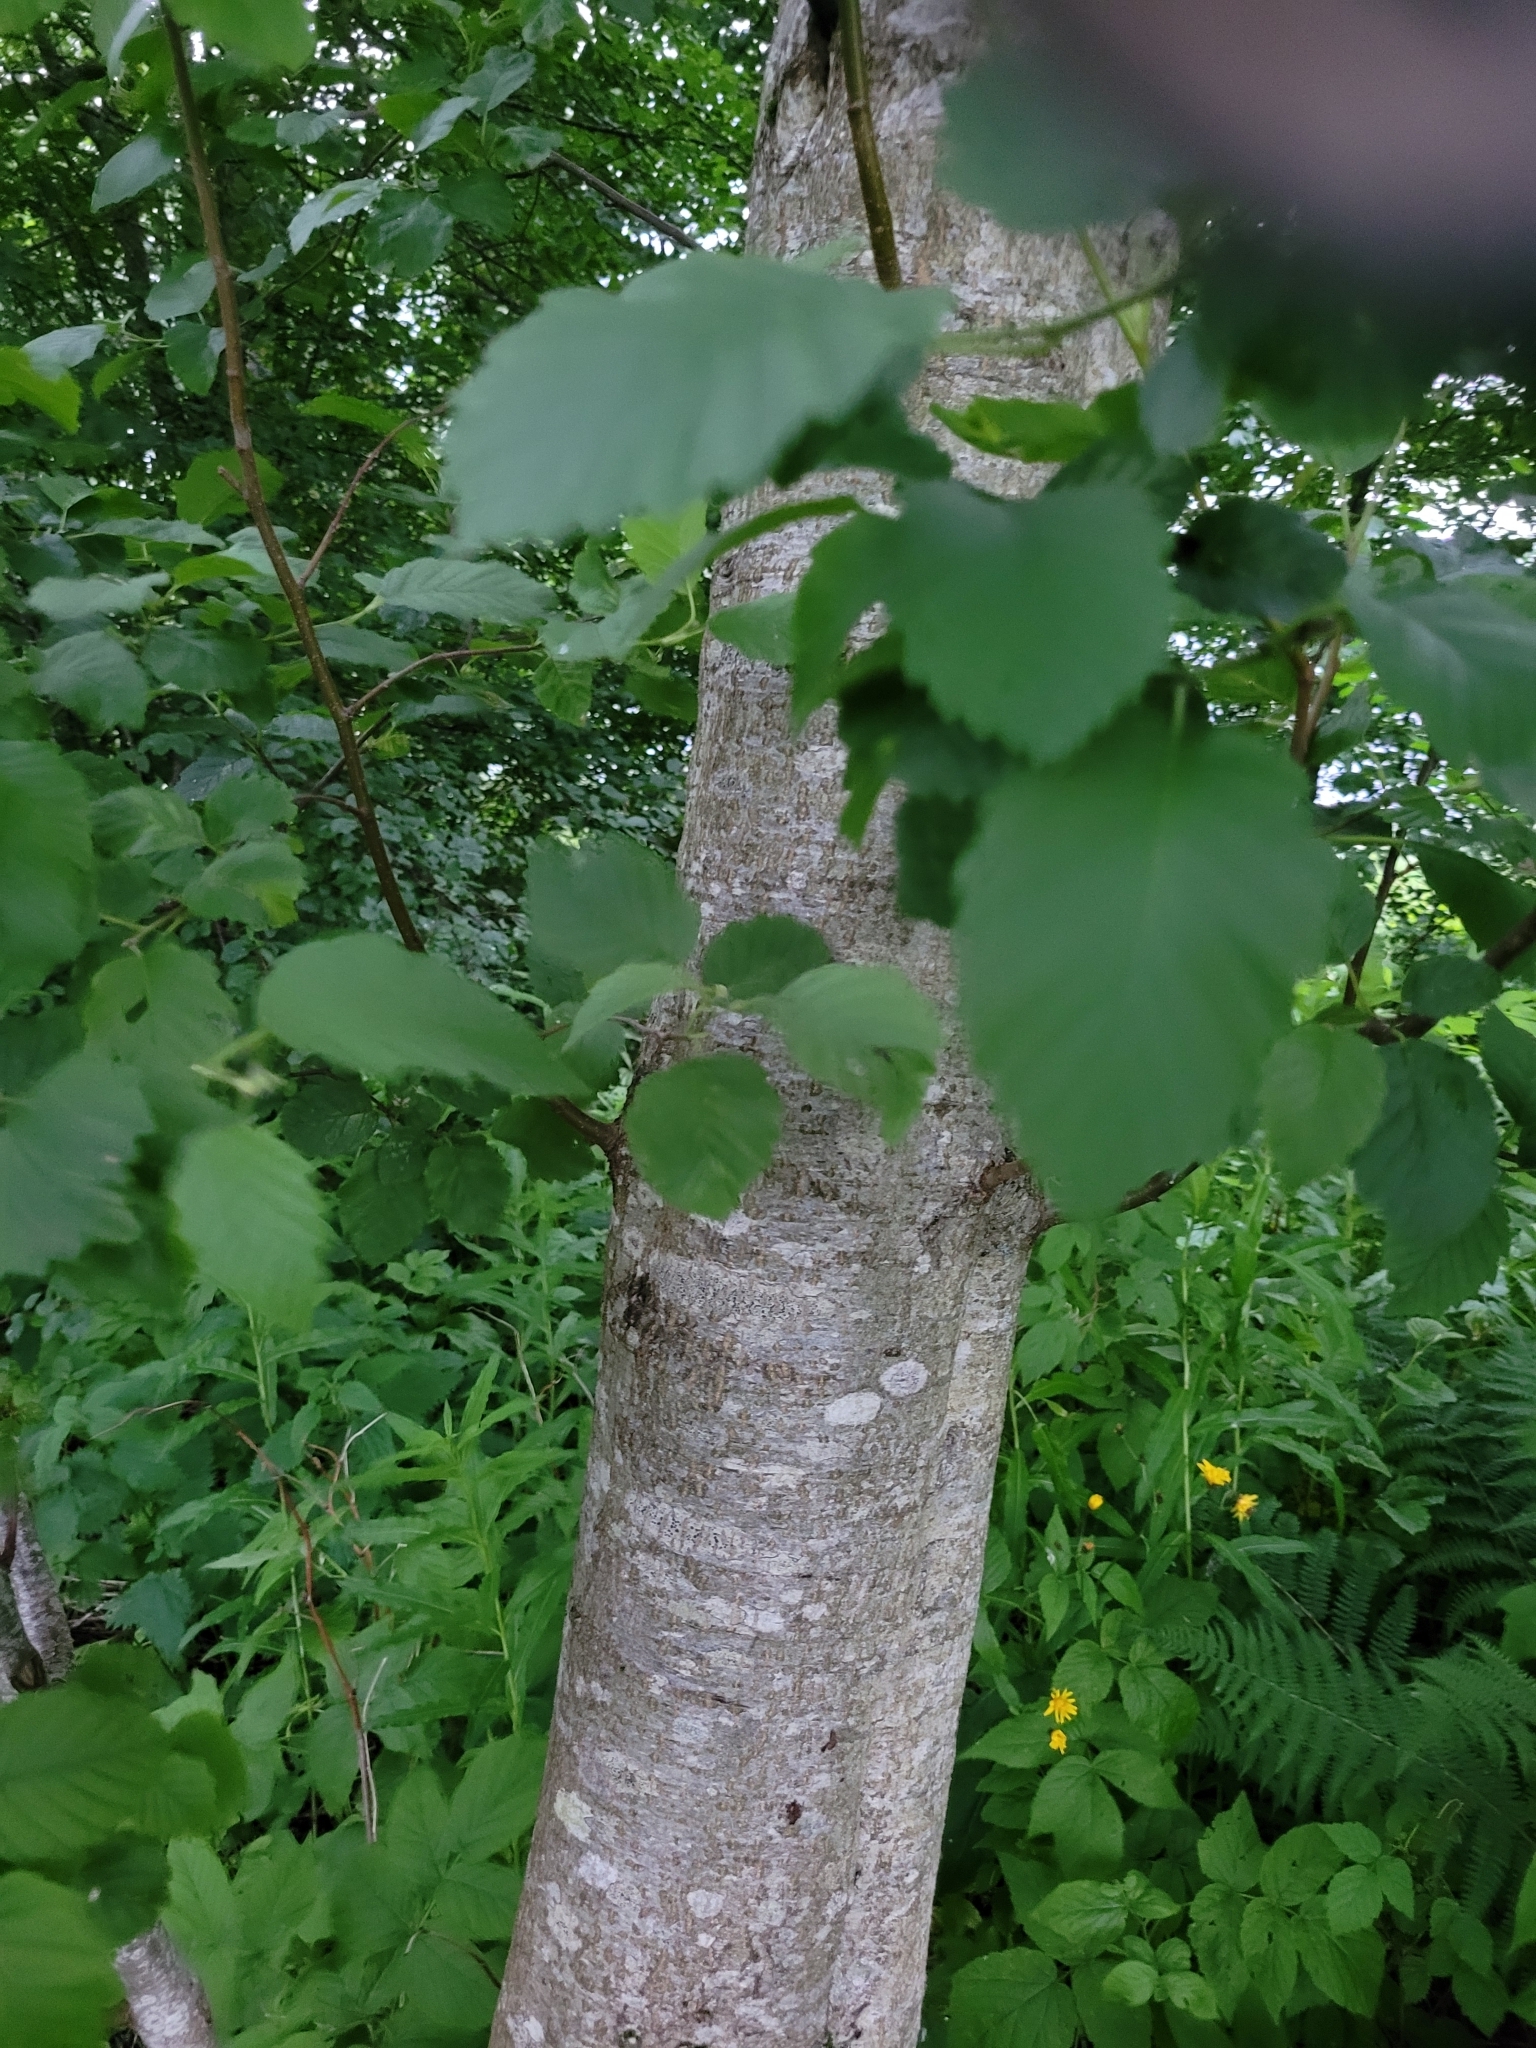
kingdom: Plantae
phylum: Tracheophyta
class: Magnoliopsida
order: Fagales
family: Betulaceae
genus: Alnus
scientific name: Alnus incana
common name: Grey alder
